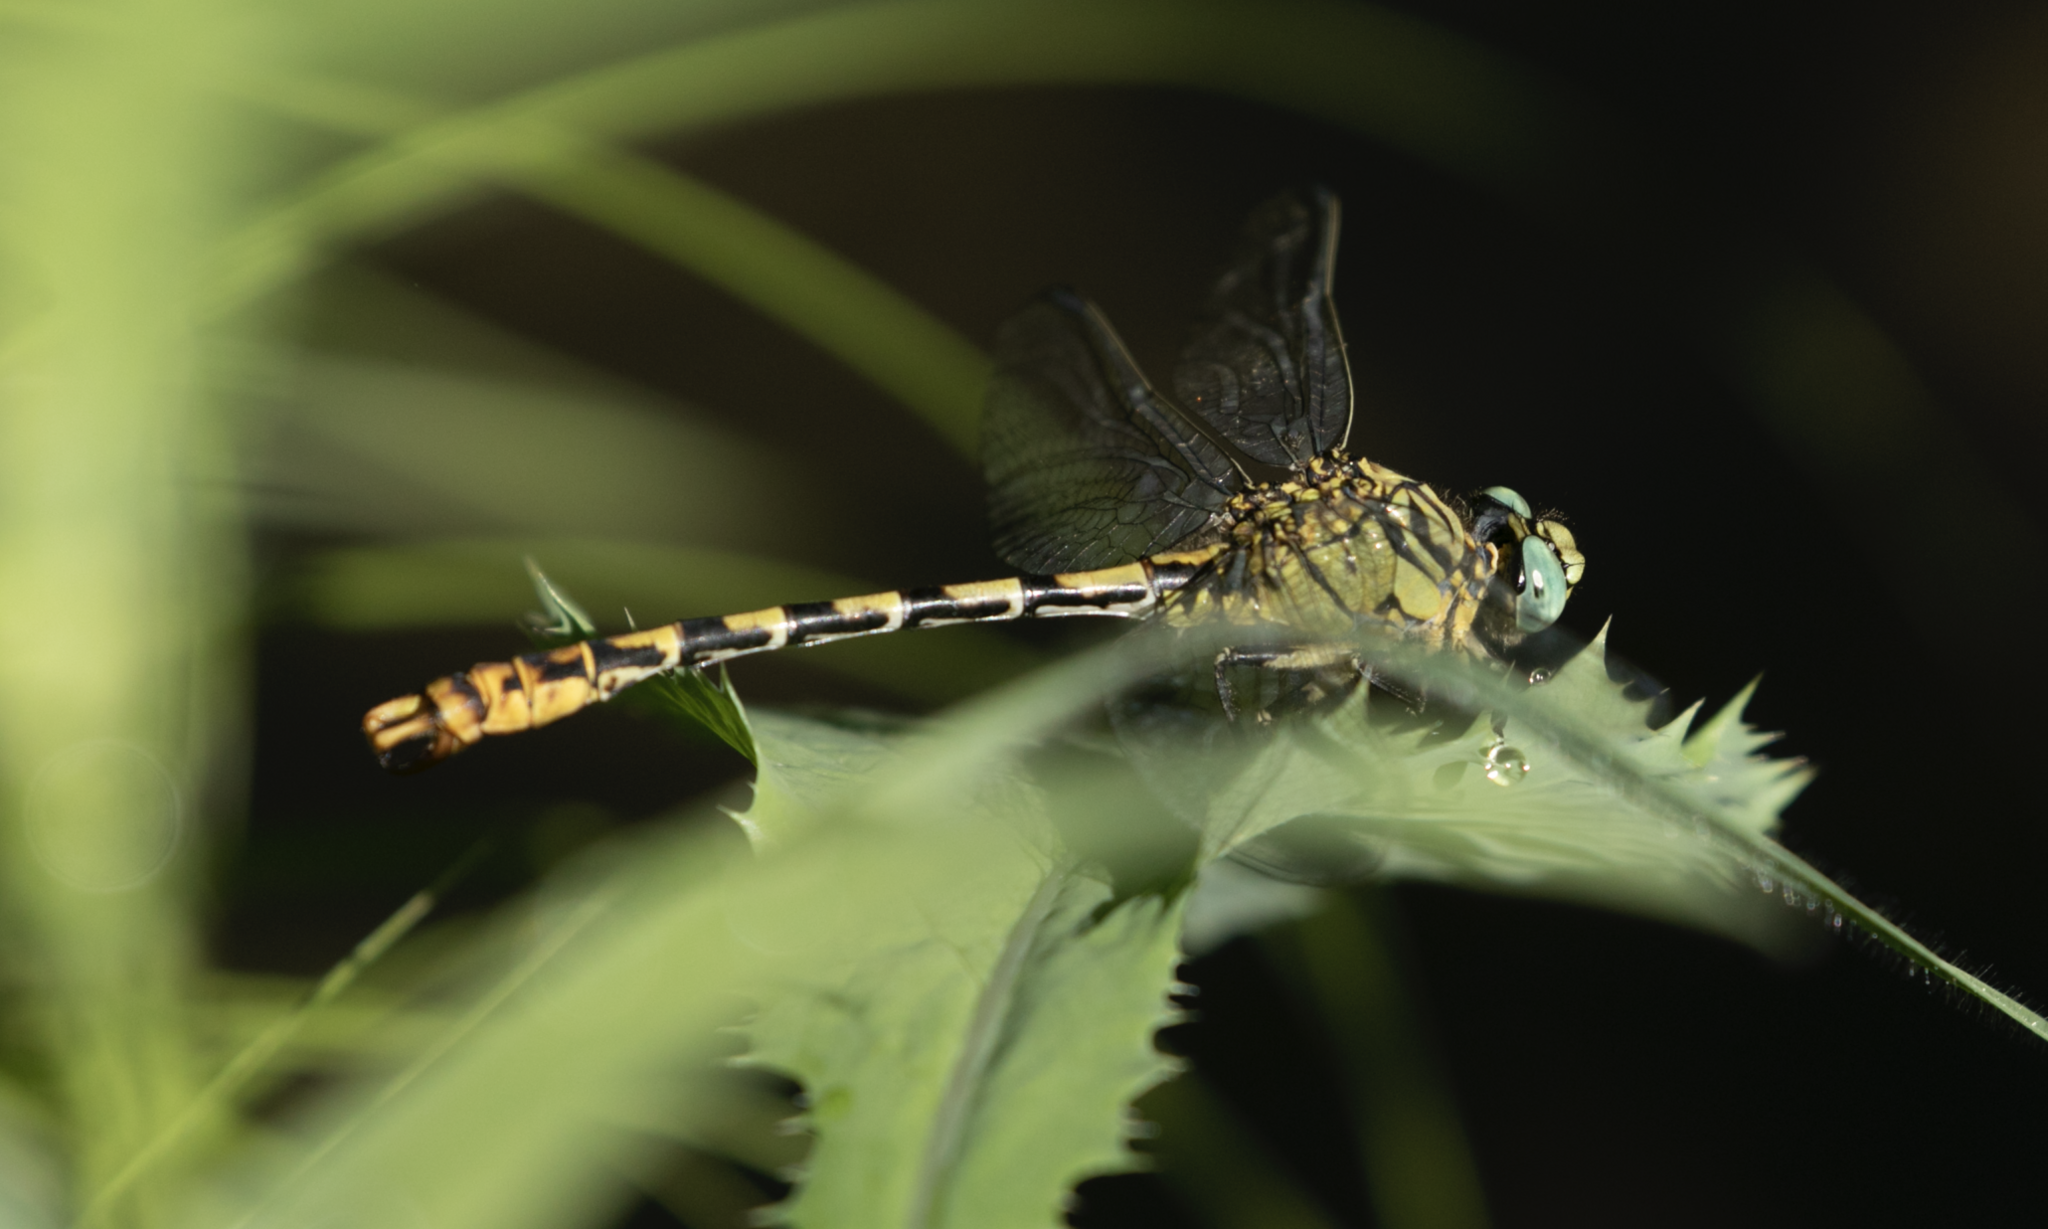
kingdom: Animalia
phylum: Arthropoda
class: Insecta
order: Odonata
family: Gomphidae
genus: Onychogomphus
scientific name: Onychogomphus forcipatus
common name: Small pincertail
